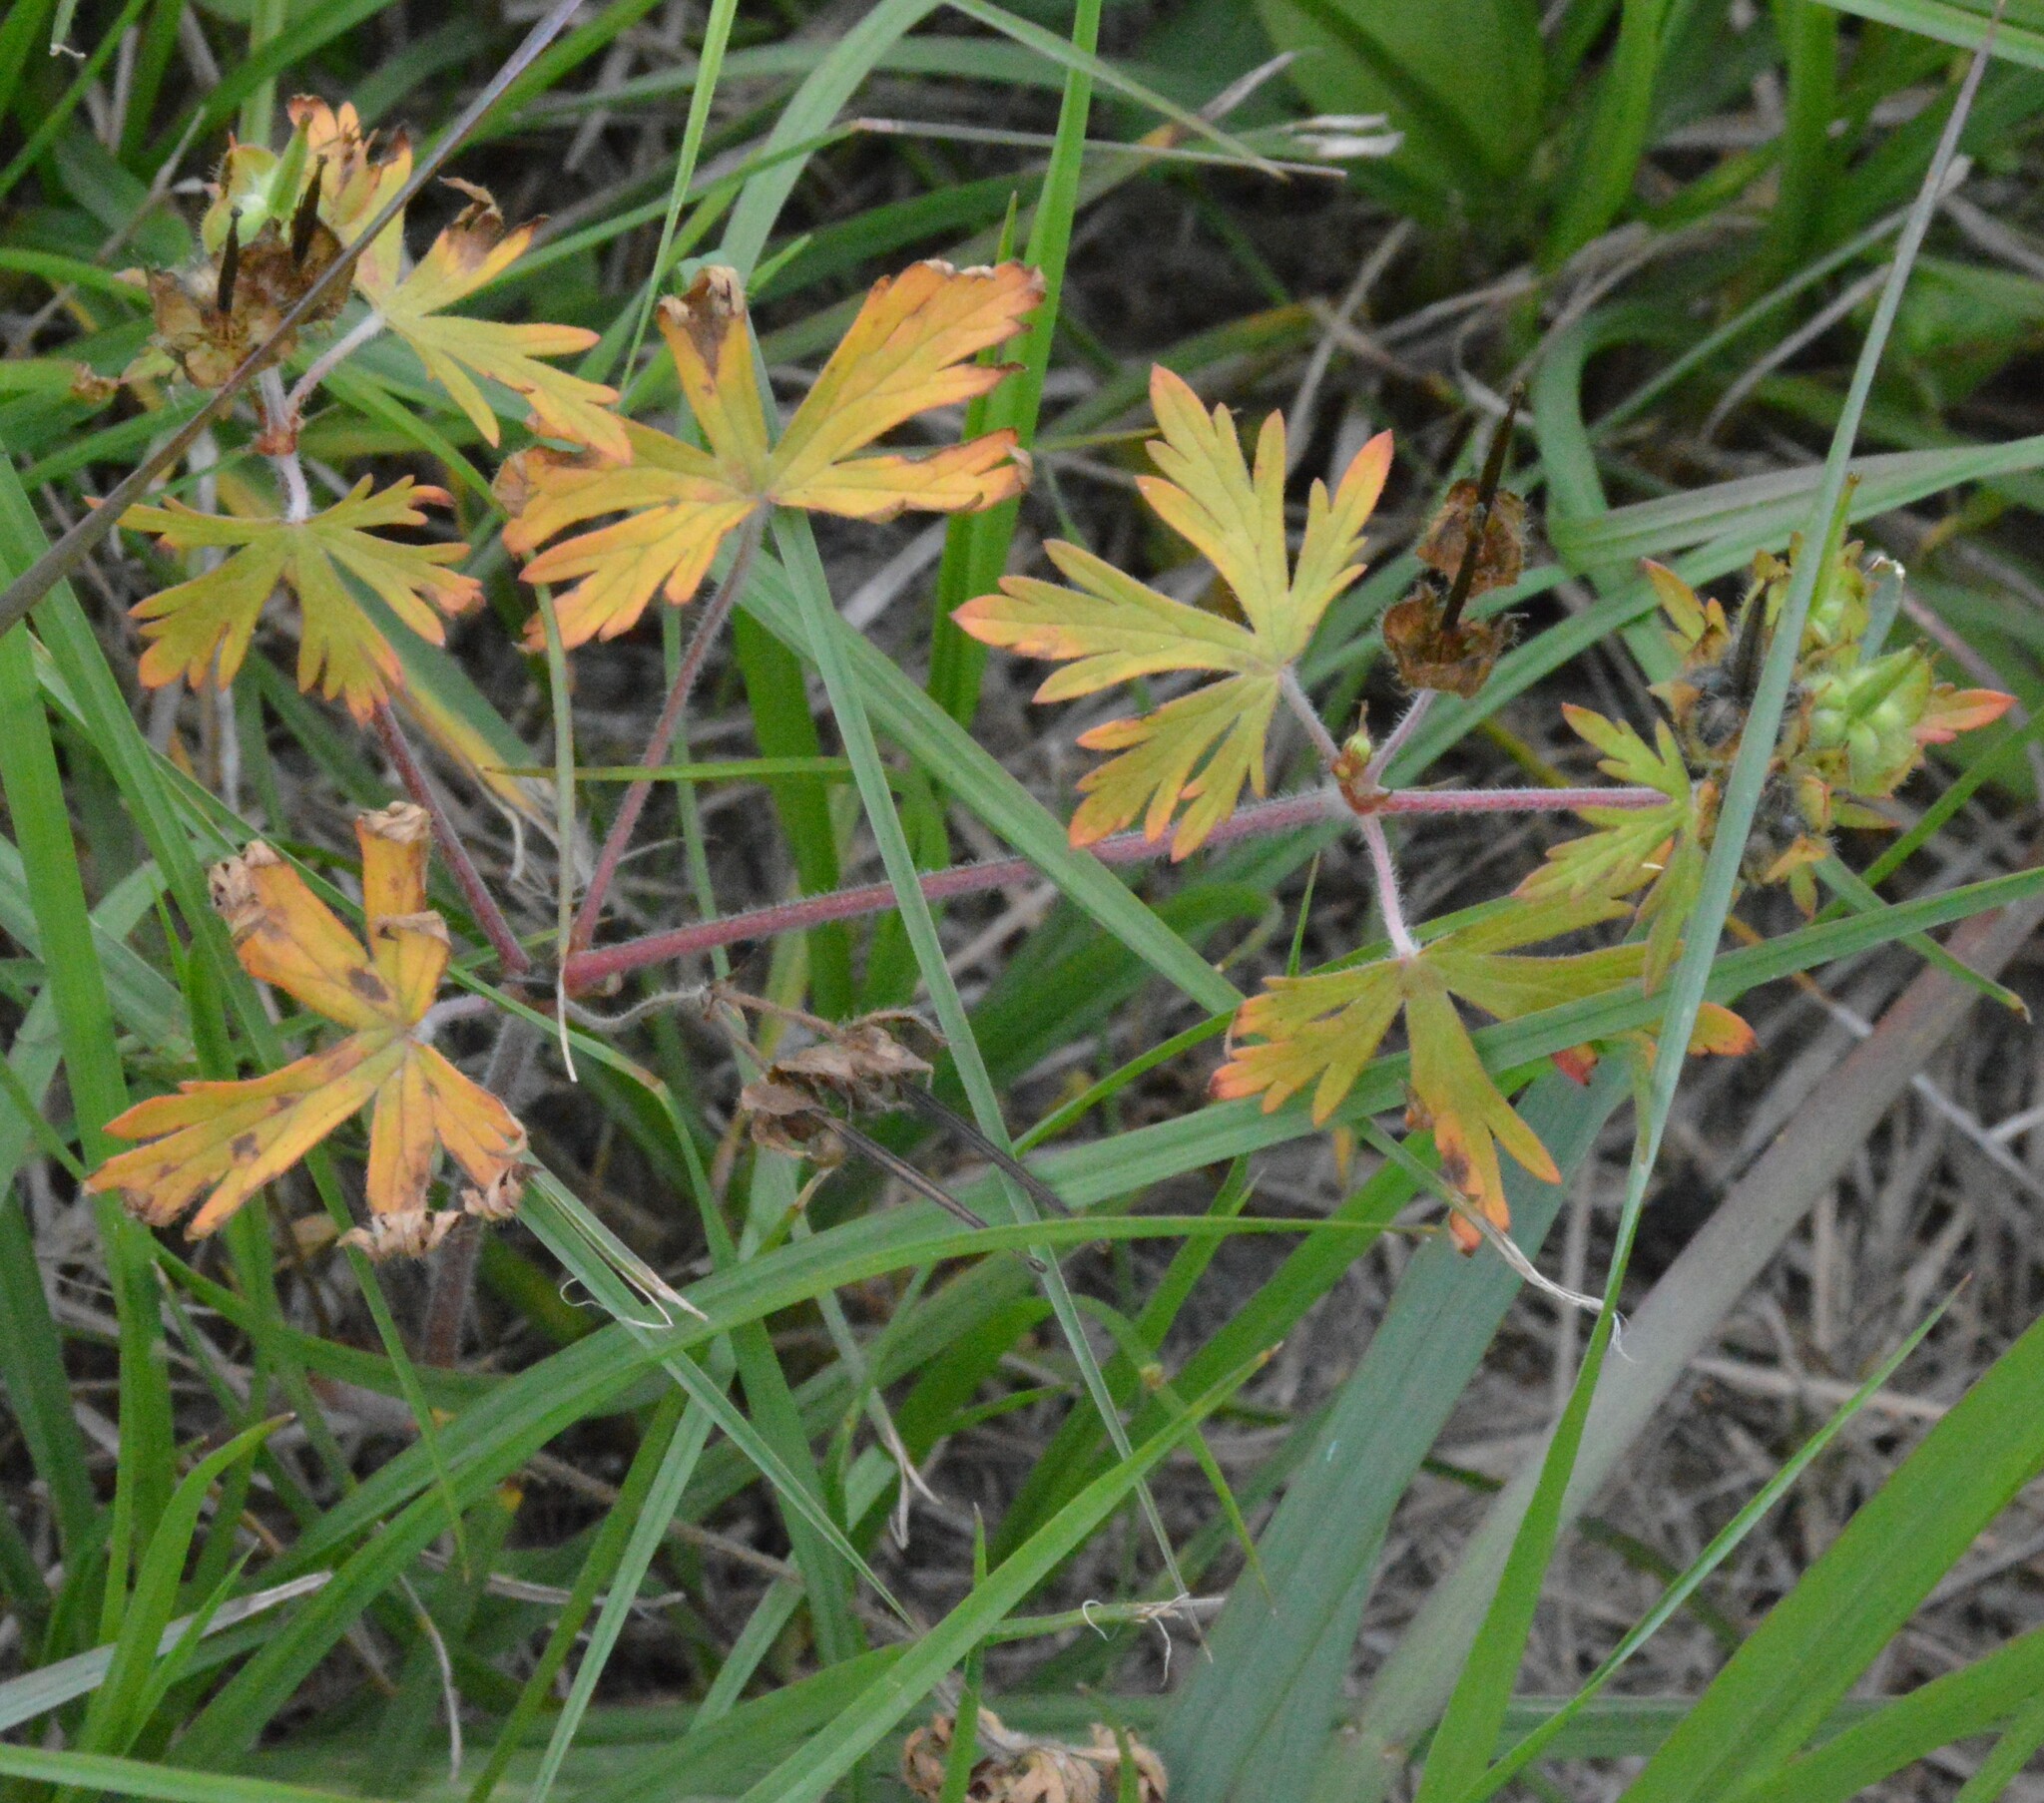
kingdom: Plantae
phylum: Tracheophyta
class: Magnoliopsida
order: Geraniales
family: Geraniaceae
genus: Geranium
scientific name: Geranium carolinianum
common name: Carolina crane's-bill
